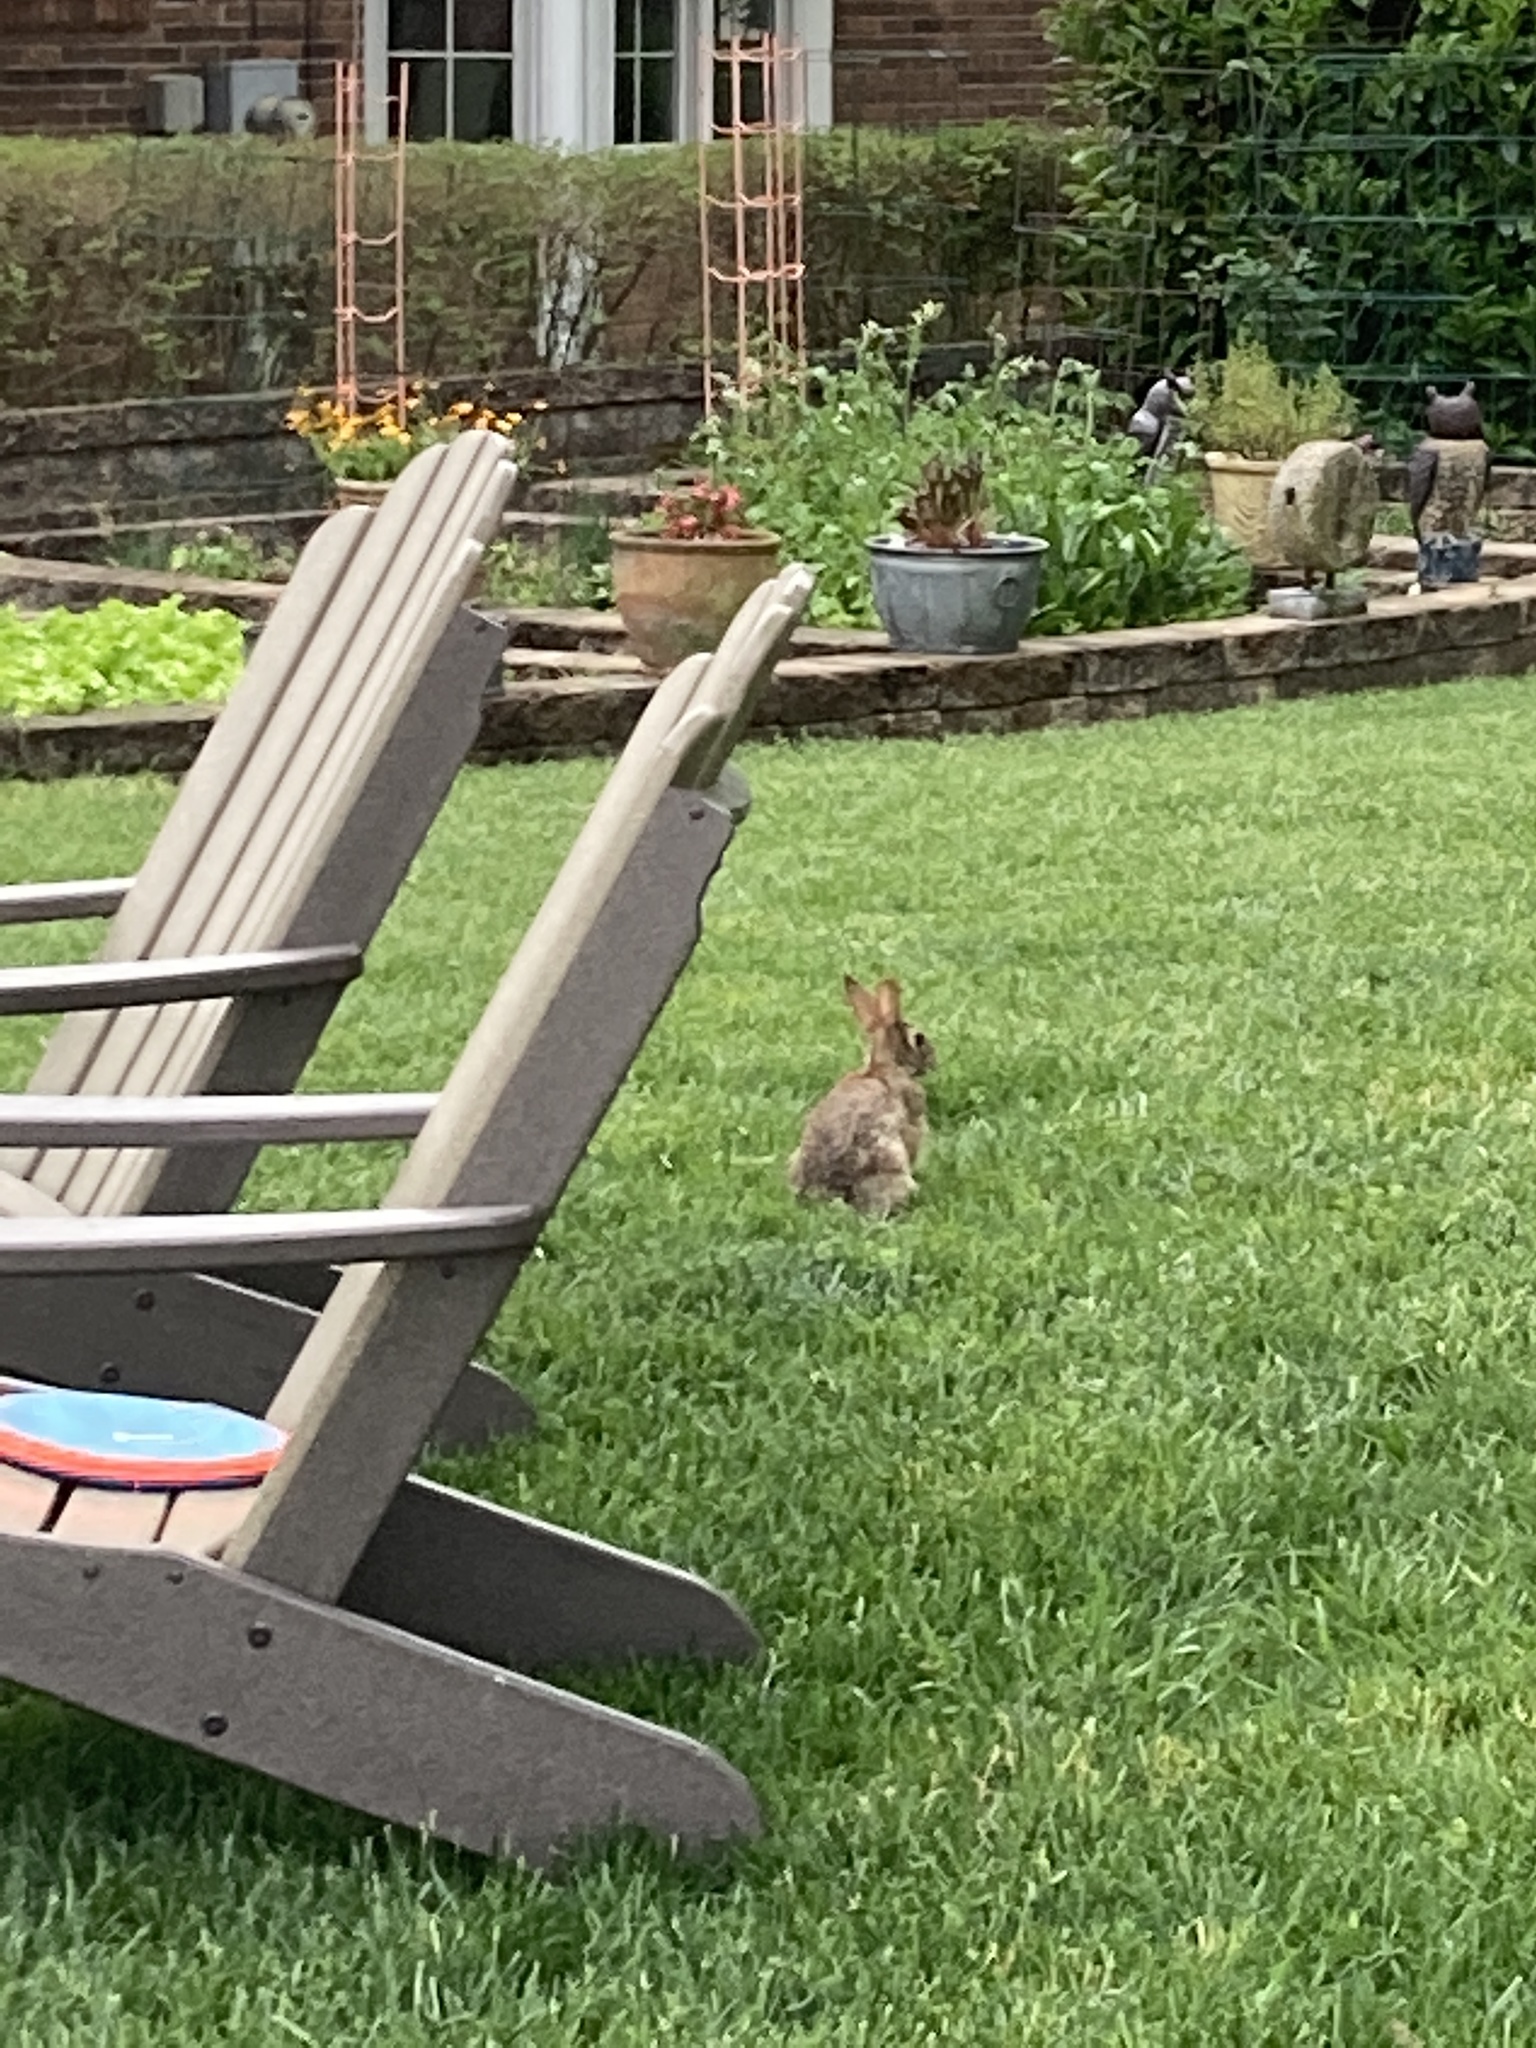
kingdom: Animalia
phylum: Chordata
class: Mammalia
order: Lagomorpha
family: Leporidae
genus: Sylvilagus
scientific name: Sylvilagus floridanus
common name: Eastern cottontail
